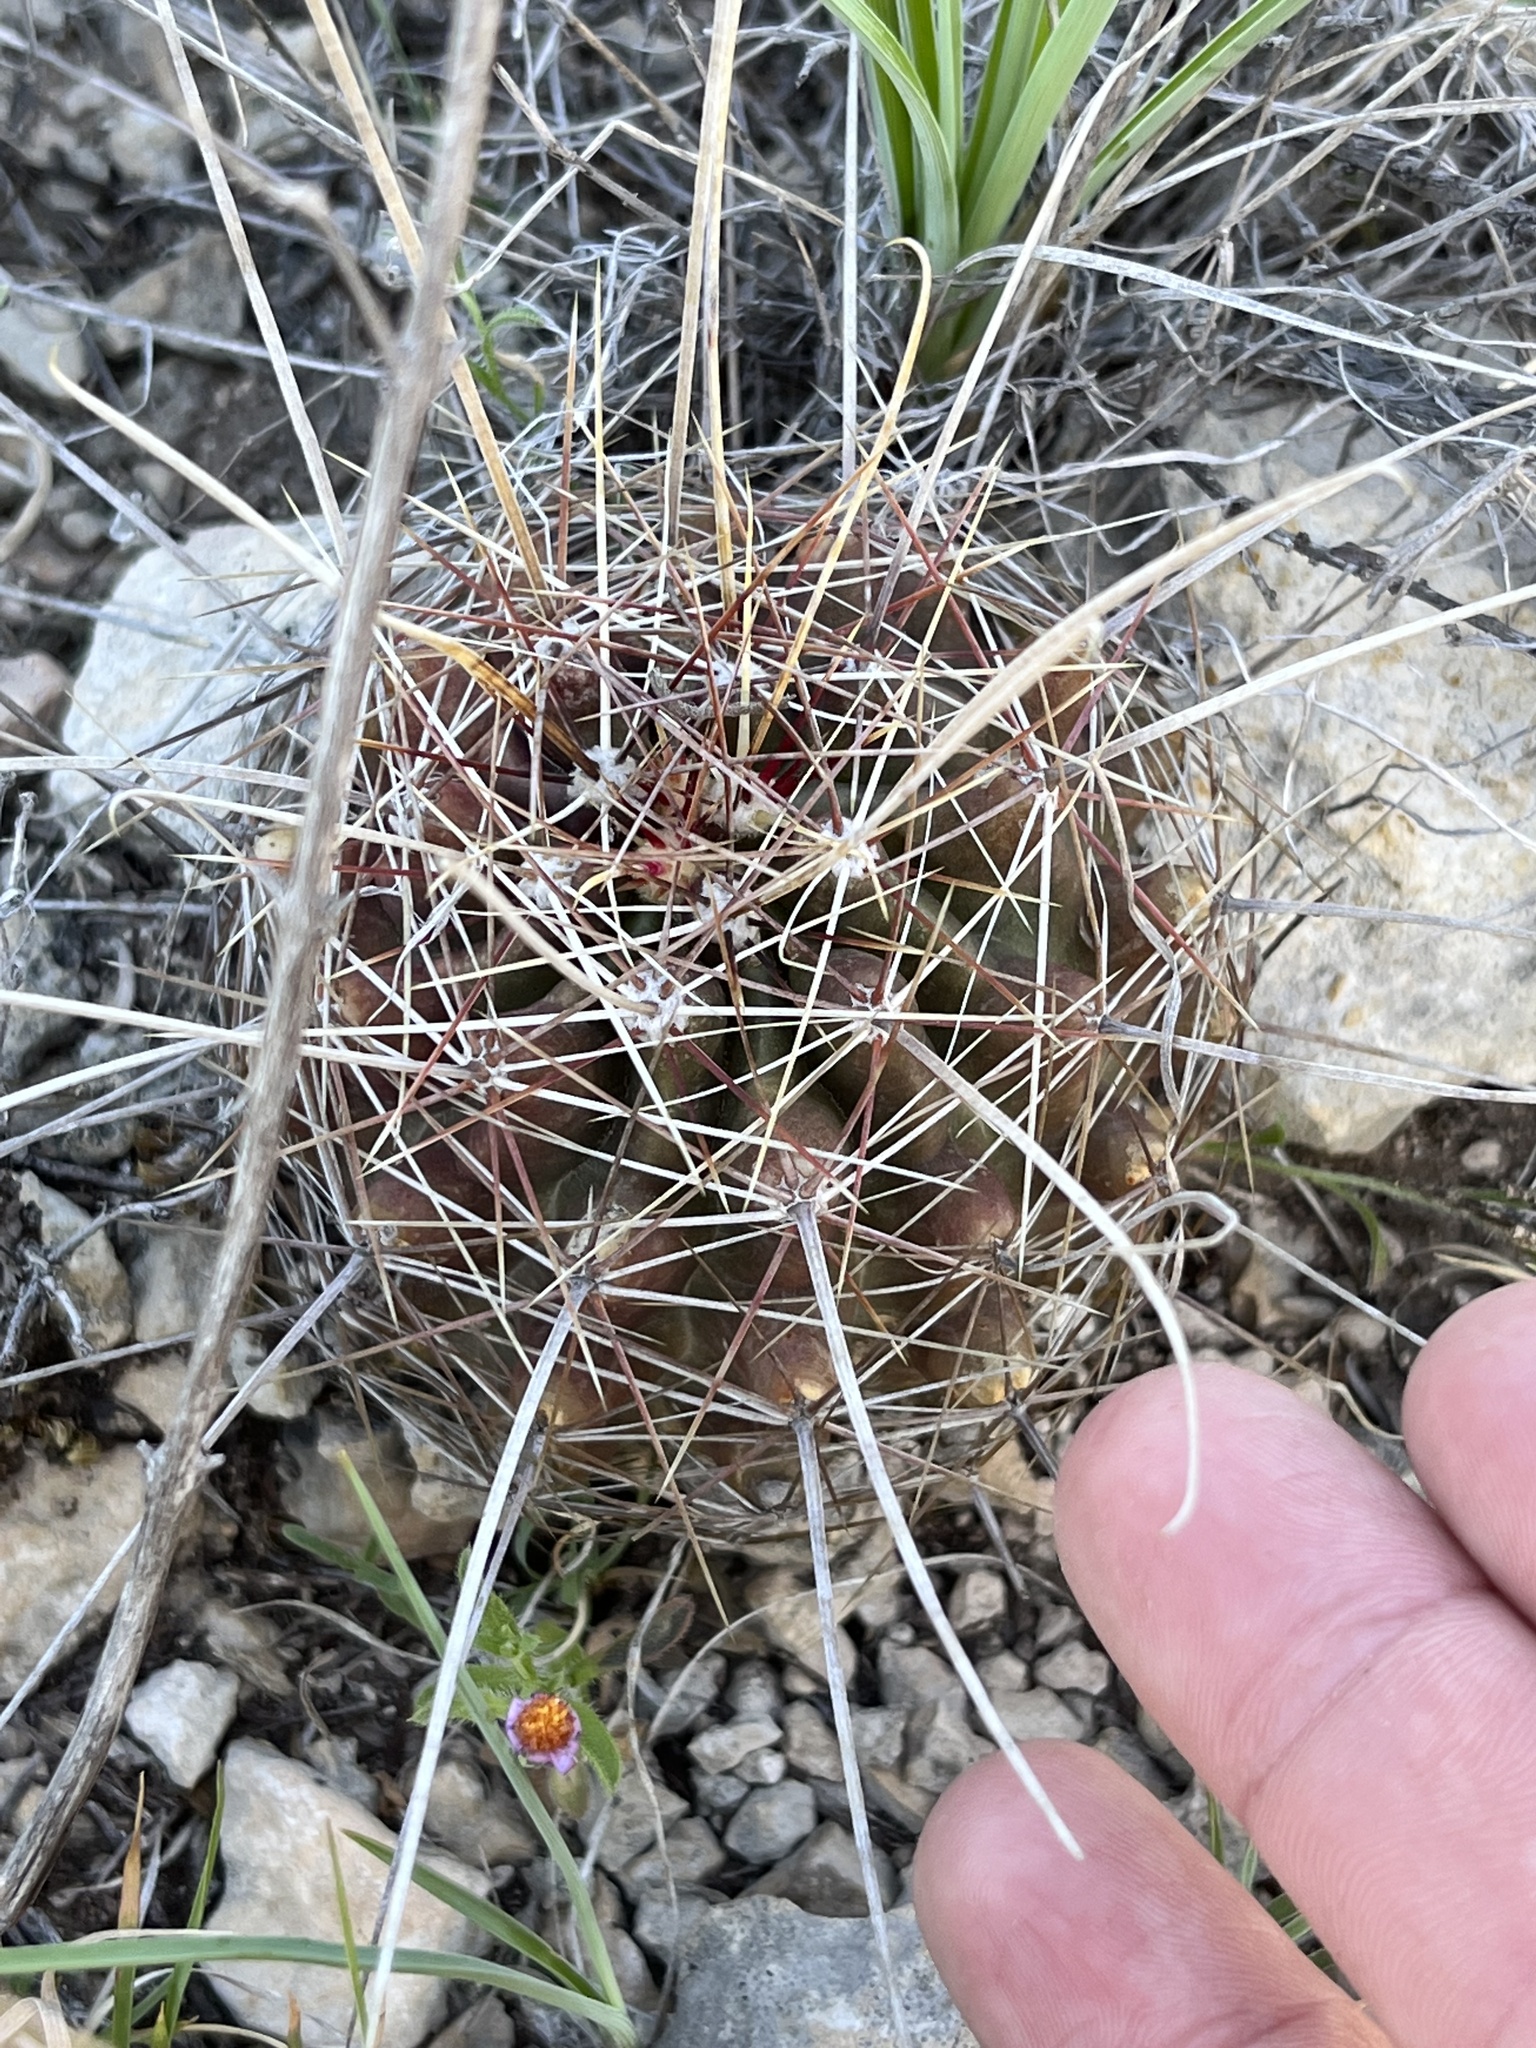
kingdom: Plantae
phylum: Tracheophyta
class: Magnoliopsida
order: Caryophyllales
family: Cactaceae
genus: Bisnaga
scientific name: Bisnaga hamatacantha
